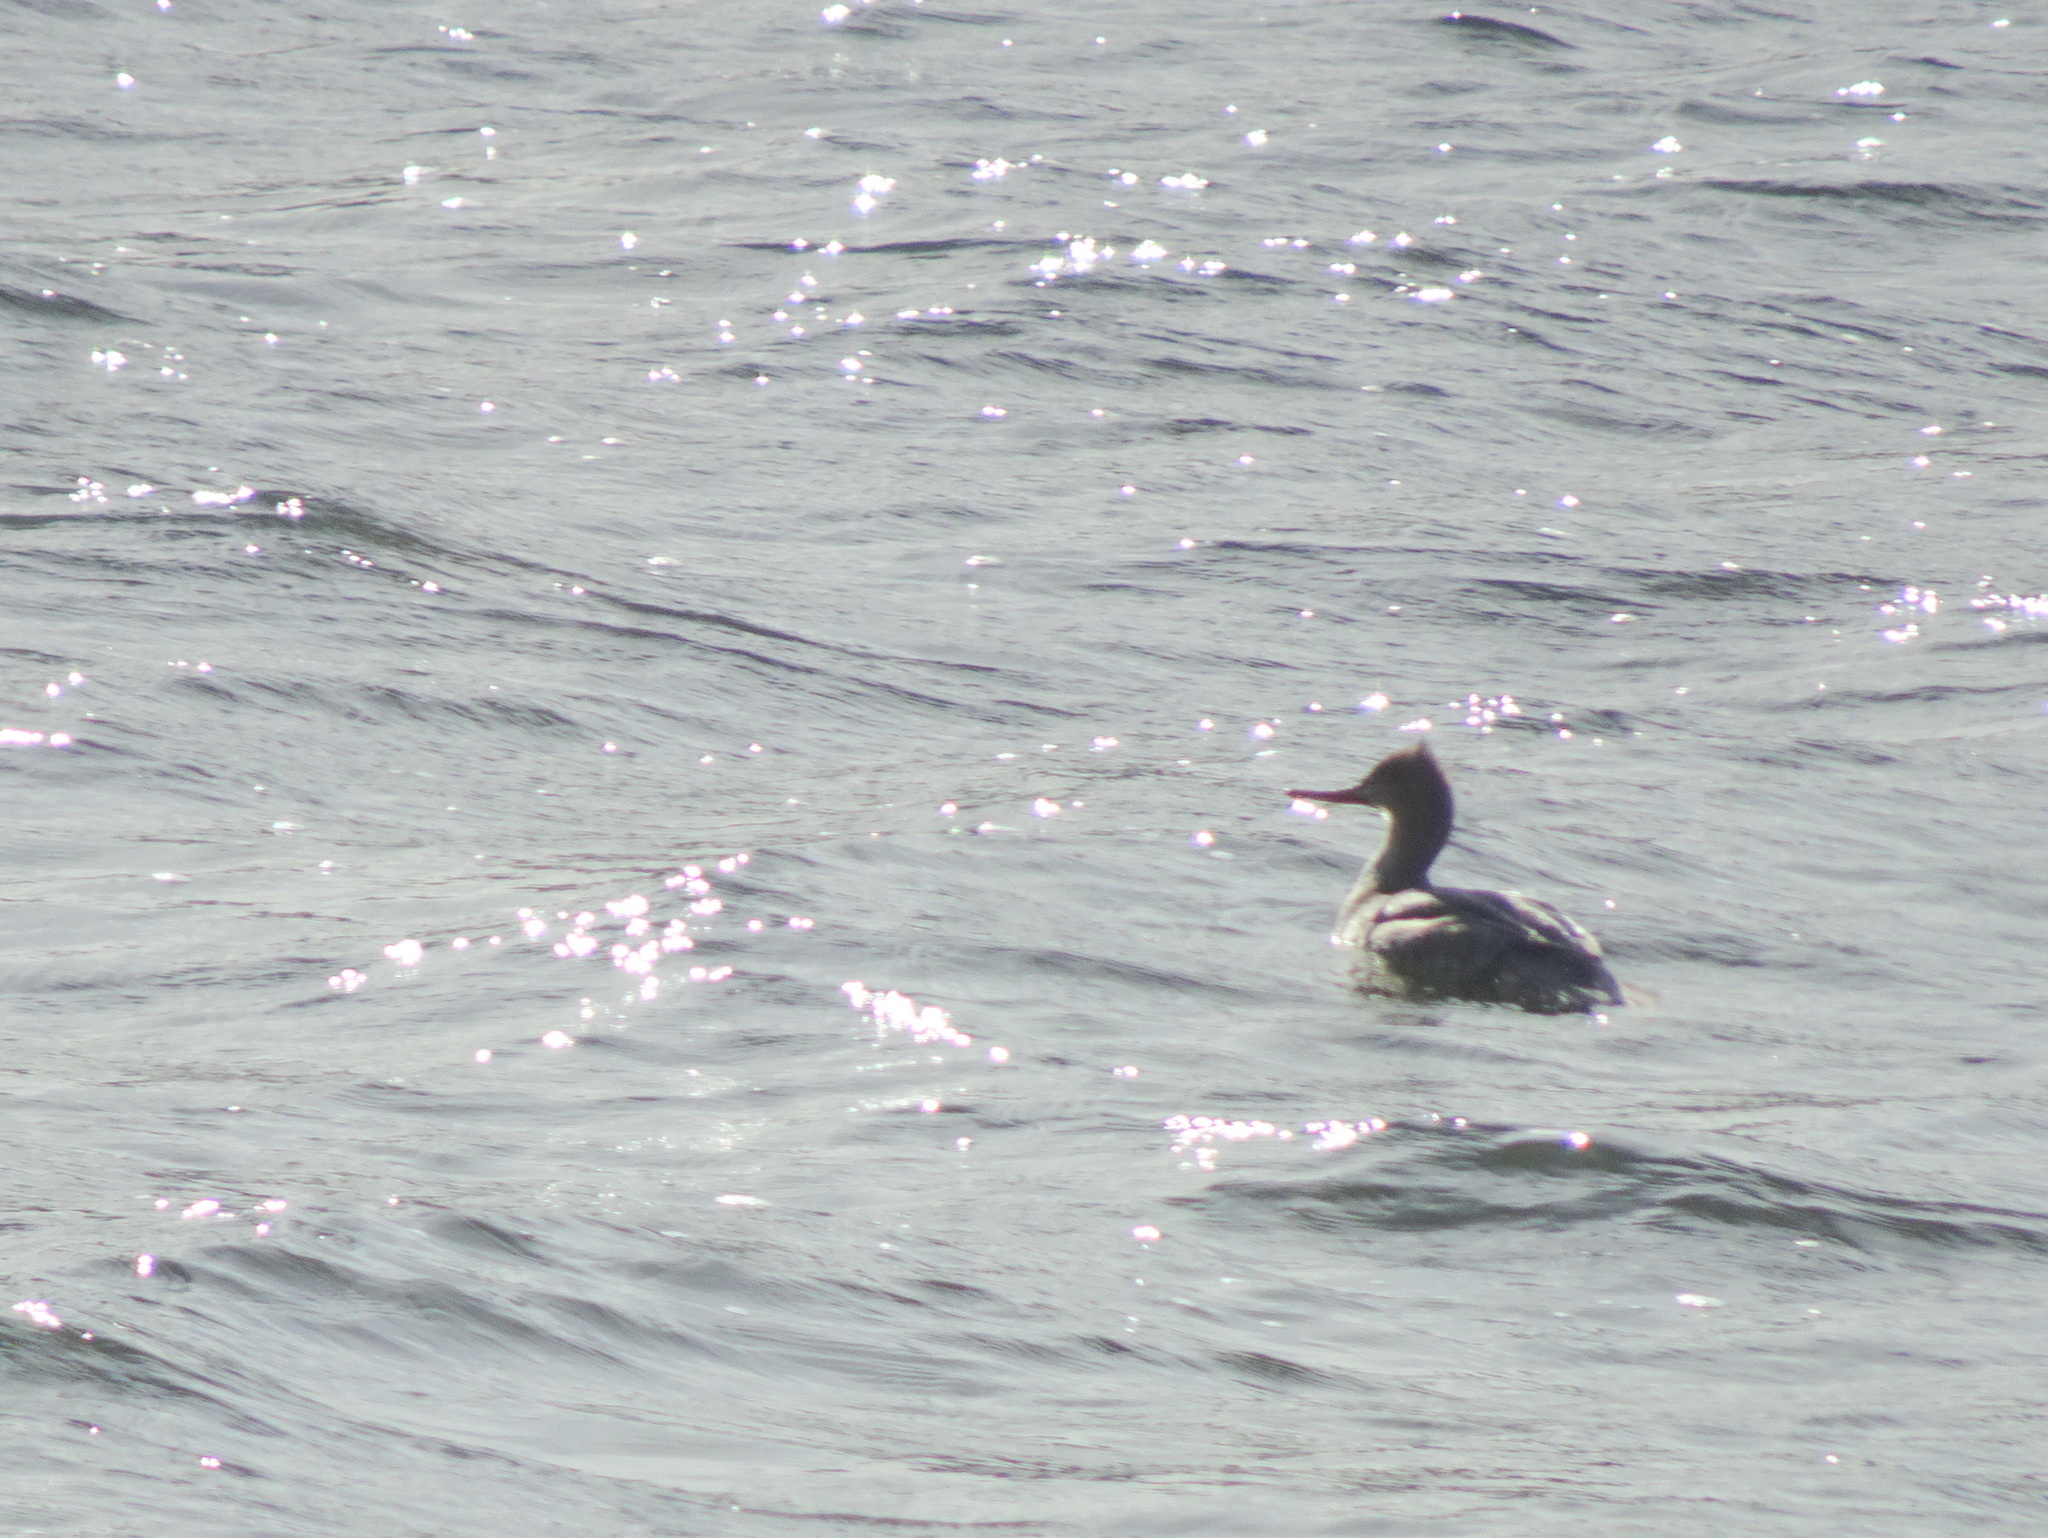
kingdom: Animalia
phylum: Chordata
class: Aves
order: Anseriformes
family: Anatidae
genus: Mergus
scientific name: Mergus serrator
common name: Red-breasted merganser
